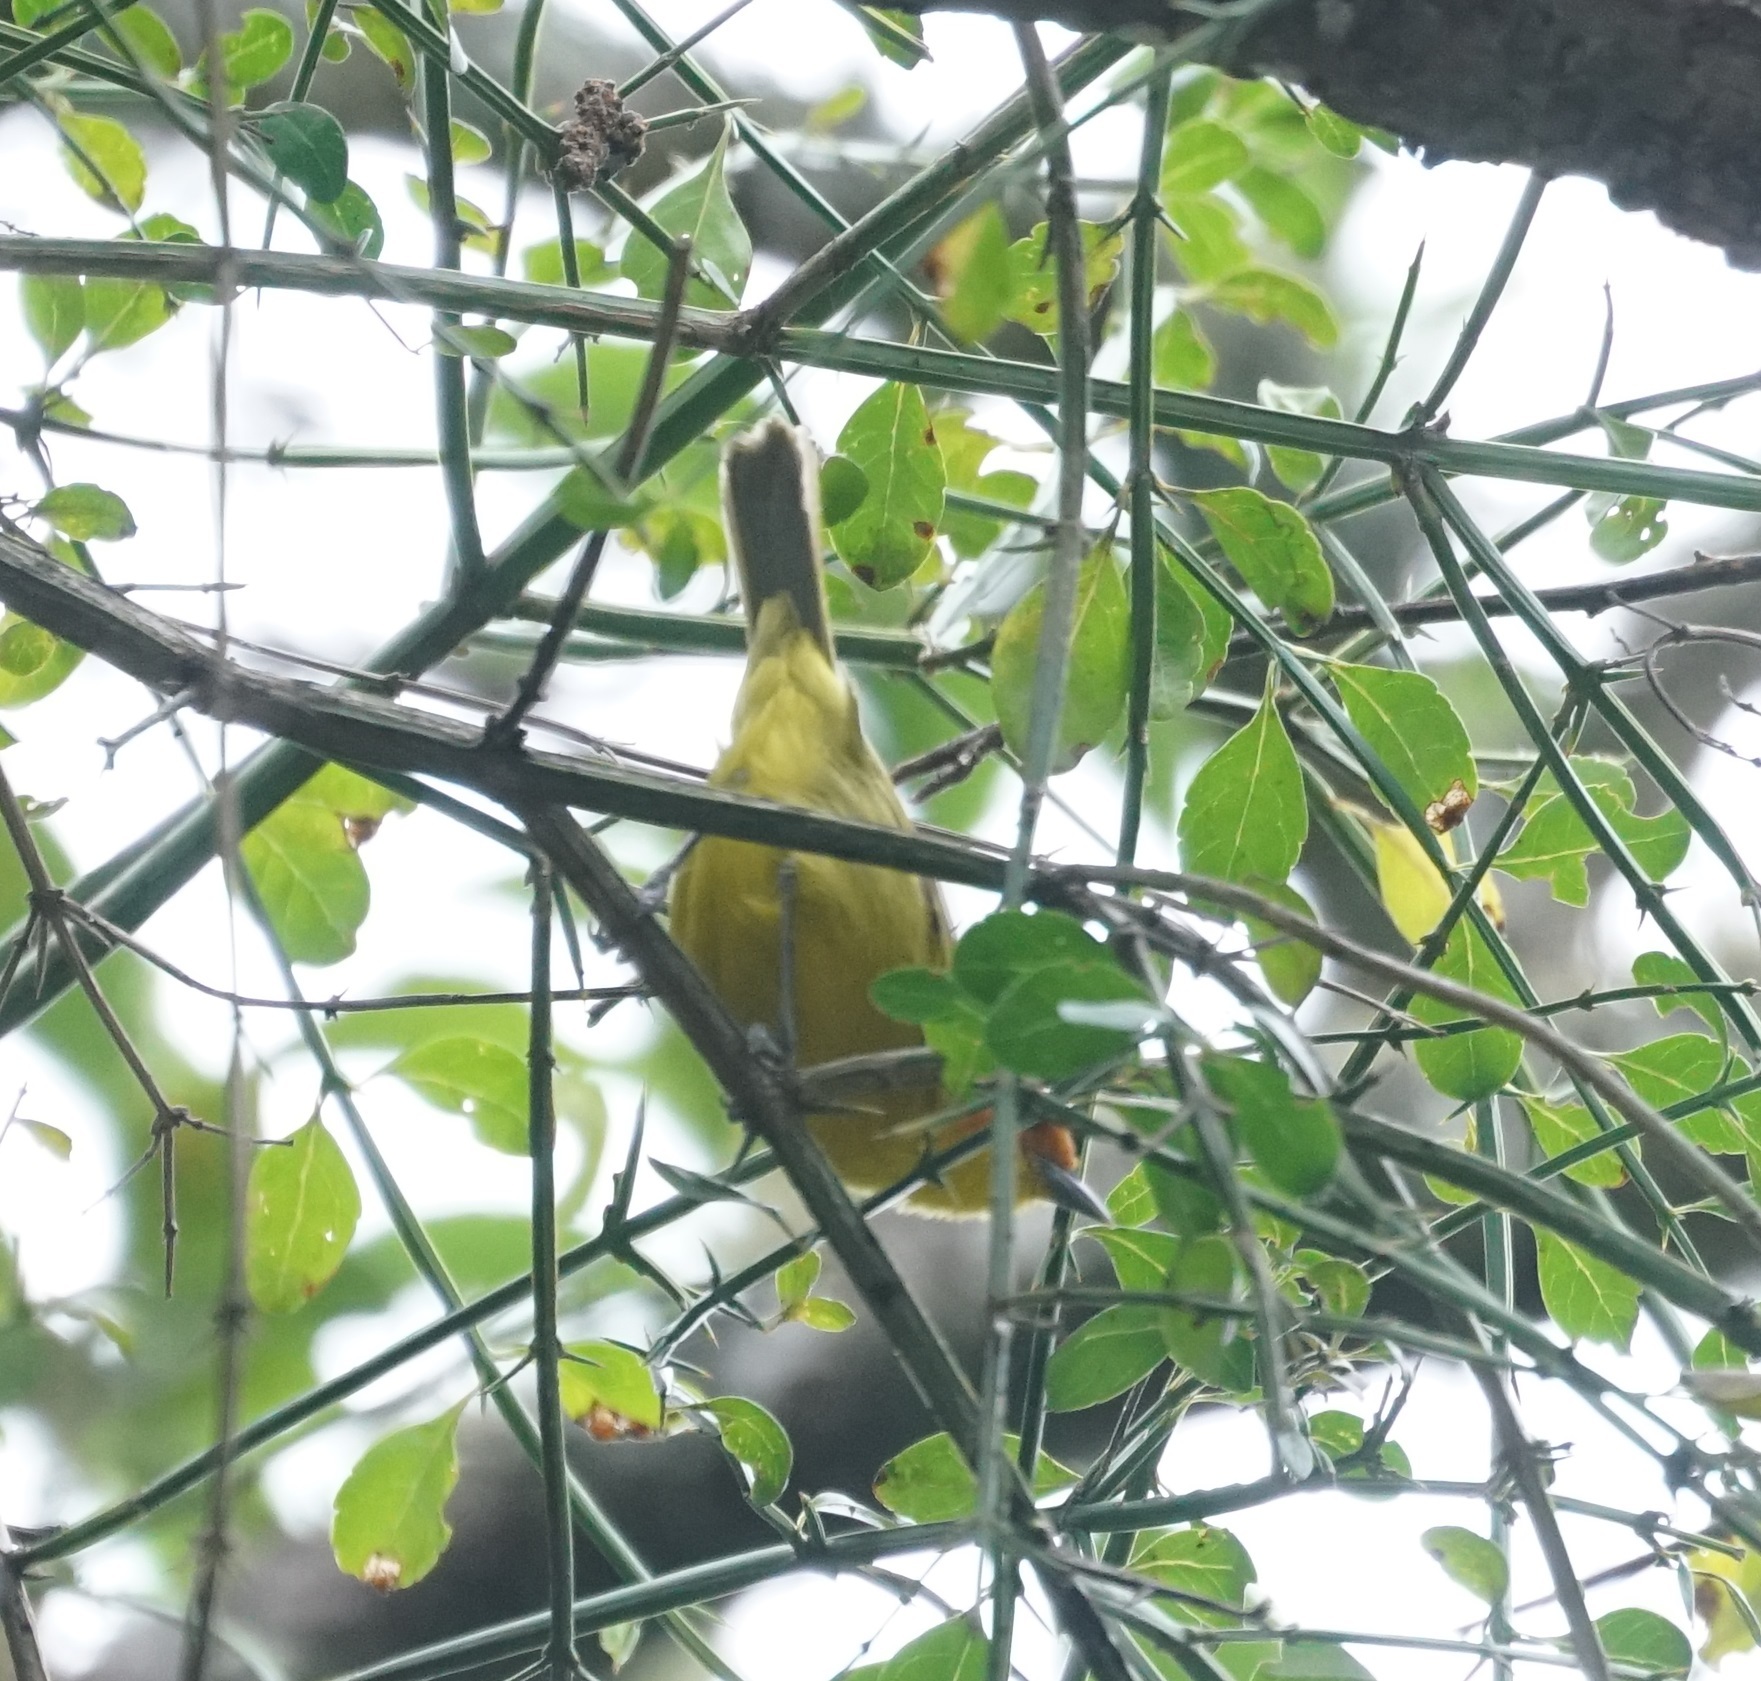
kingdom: Animalia
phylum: Chordata
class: Aves
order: Passeriformes
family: Thraupidae
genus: Thlypopsis
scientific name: Thlypopsis ruficeps
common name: Rust-and-yellow tanager
